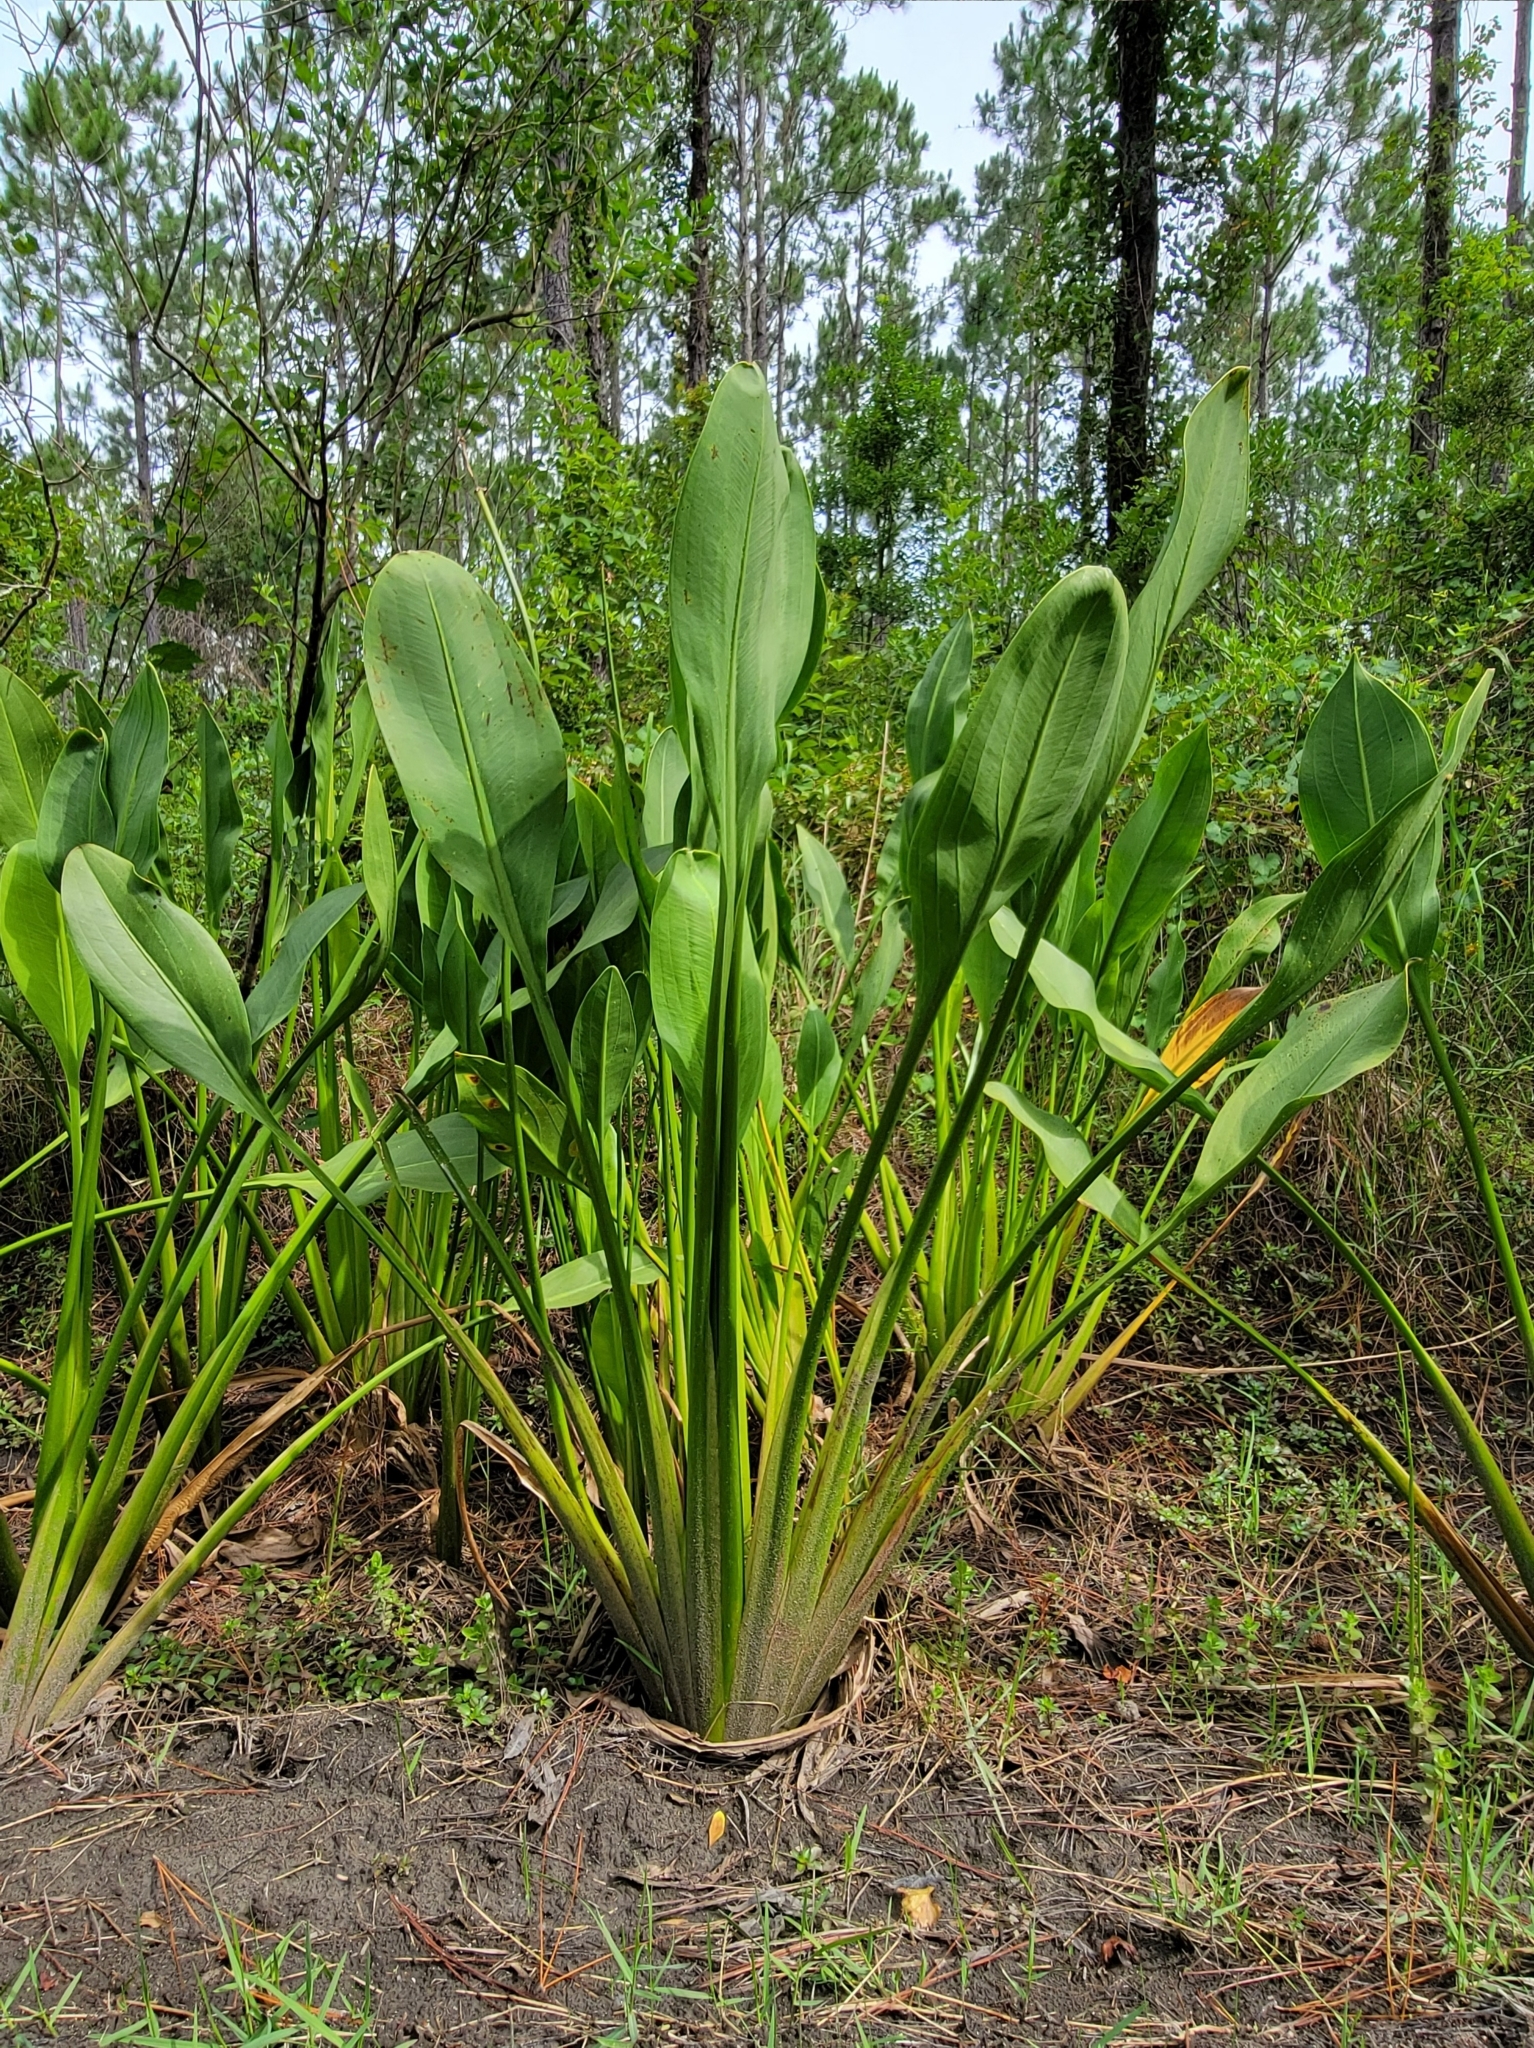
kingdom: Plantae
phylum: Tracheophyta
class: Liliopsida
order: Alismatales
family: Alismataceae
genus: Sagittaria
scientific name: Sagittaria lancifolia
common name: Lance-leaf arrowhead
